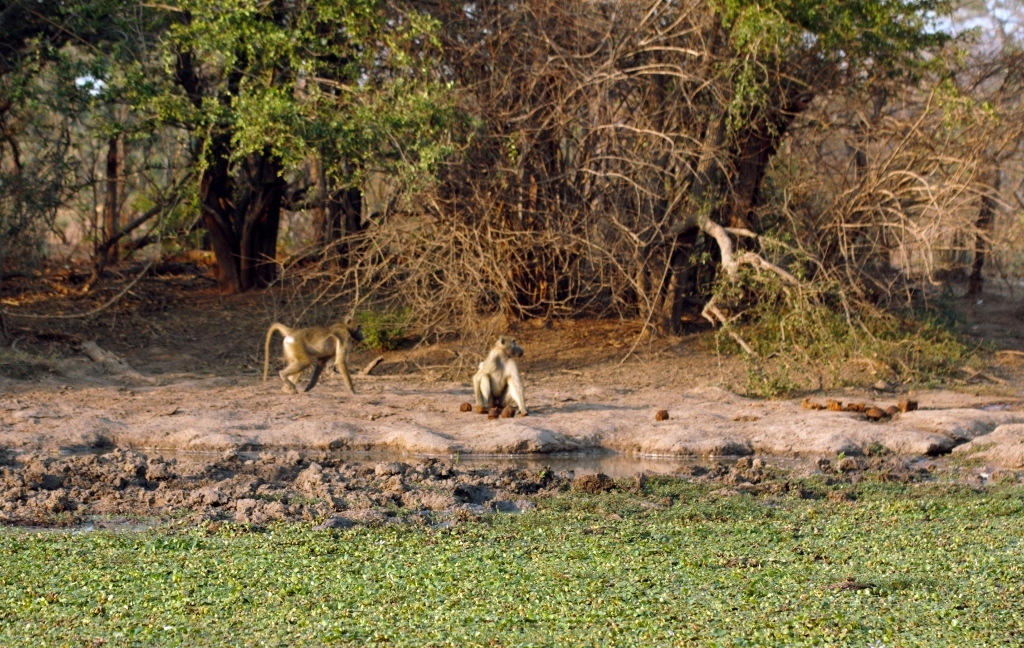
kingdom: Animalia
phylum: Chordata
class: Mammalia
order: Primates
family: Cercopithecidae
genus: Papio
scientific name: Papio ursinus
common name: Chacma baboon
